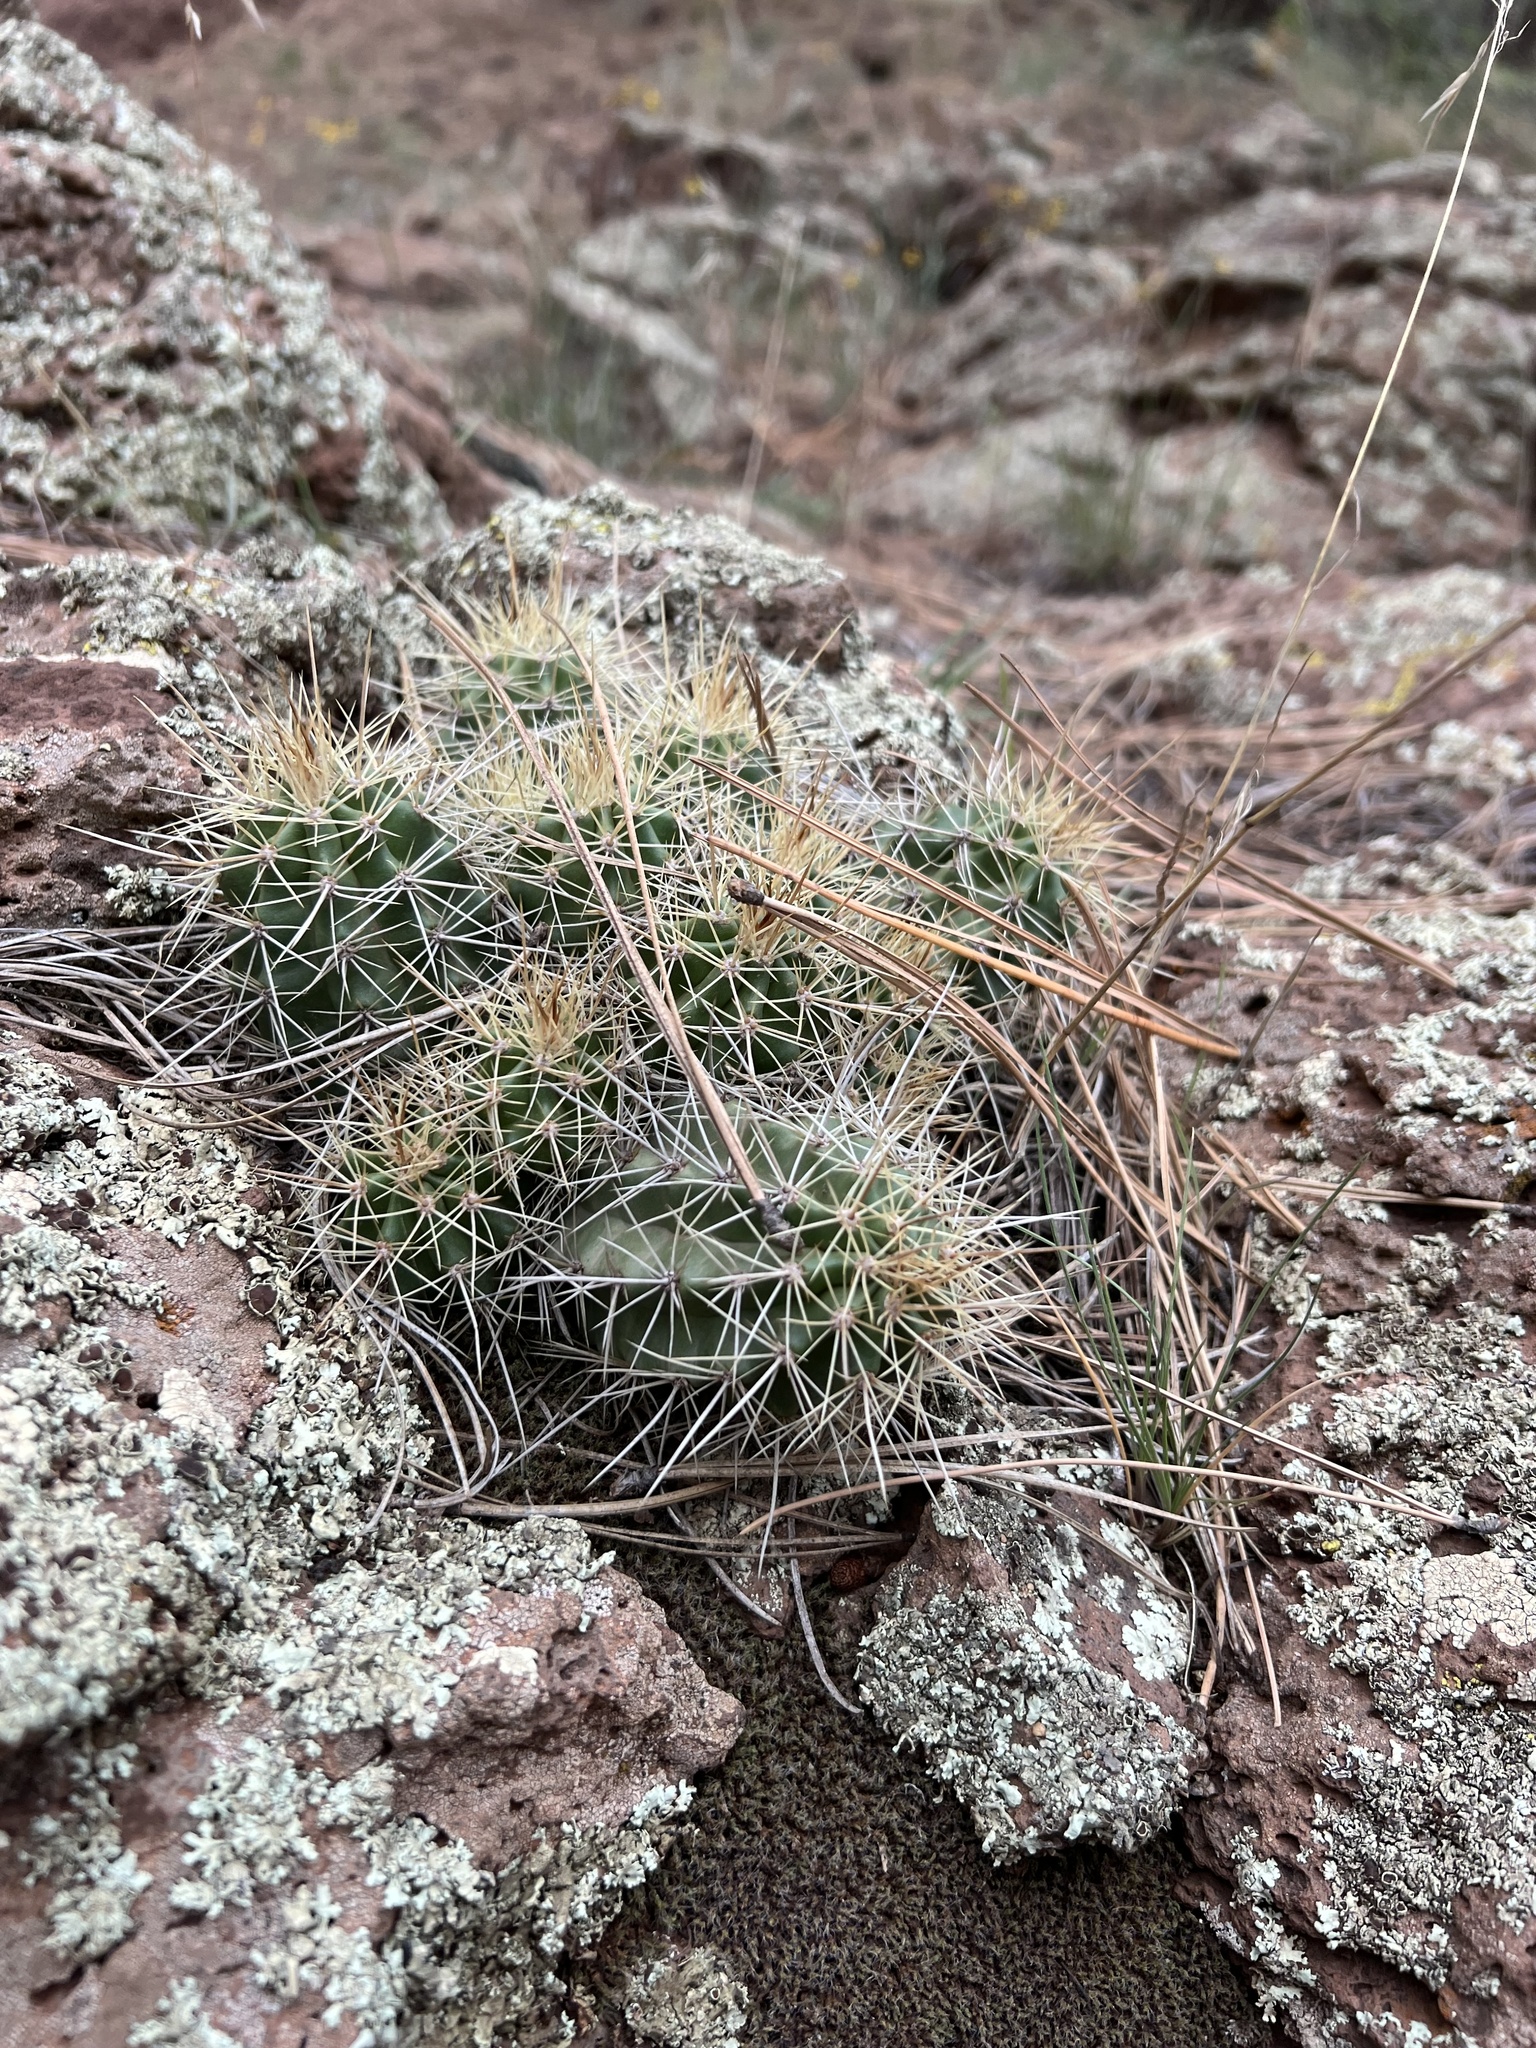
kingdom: Plantae
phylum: Tracheophyta
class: Magnoliopsida
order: Caryophyllales
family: Cactaceae
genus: Echinocereus
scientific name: Echinocereus bakeri
